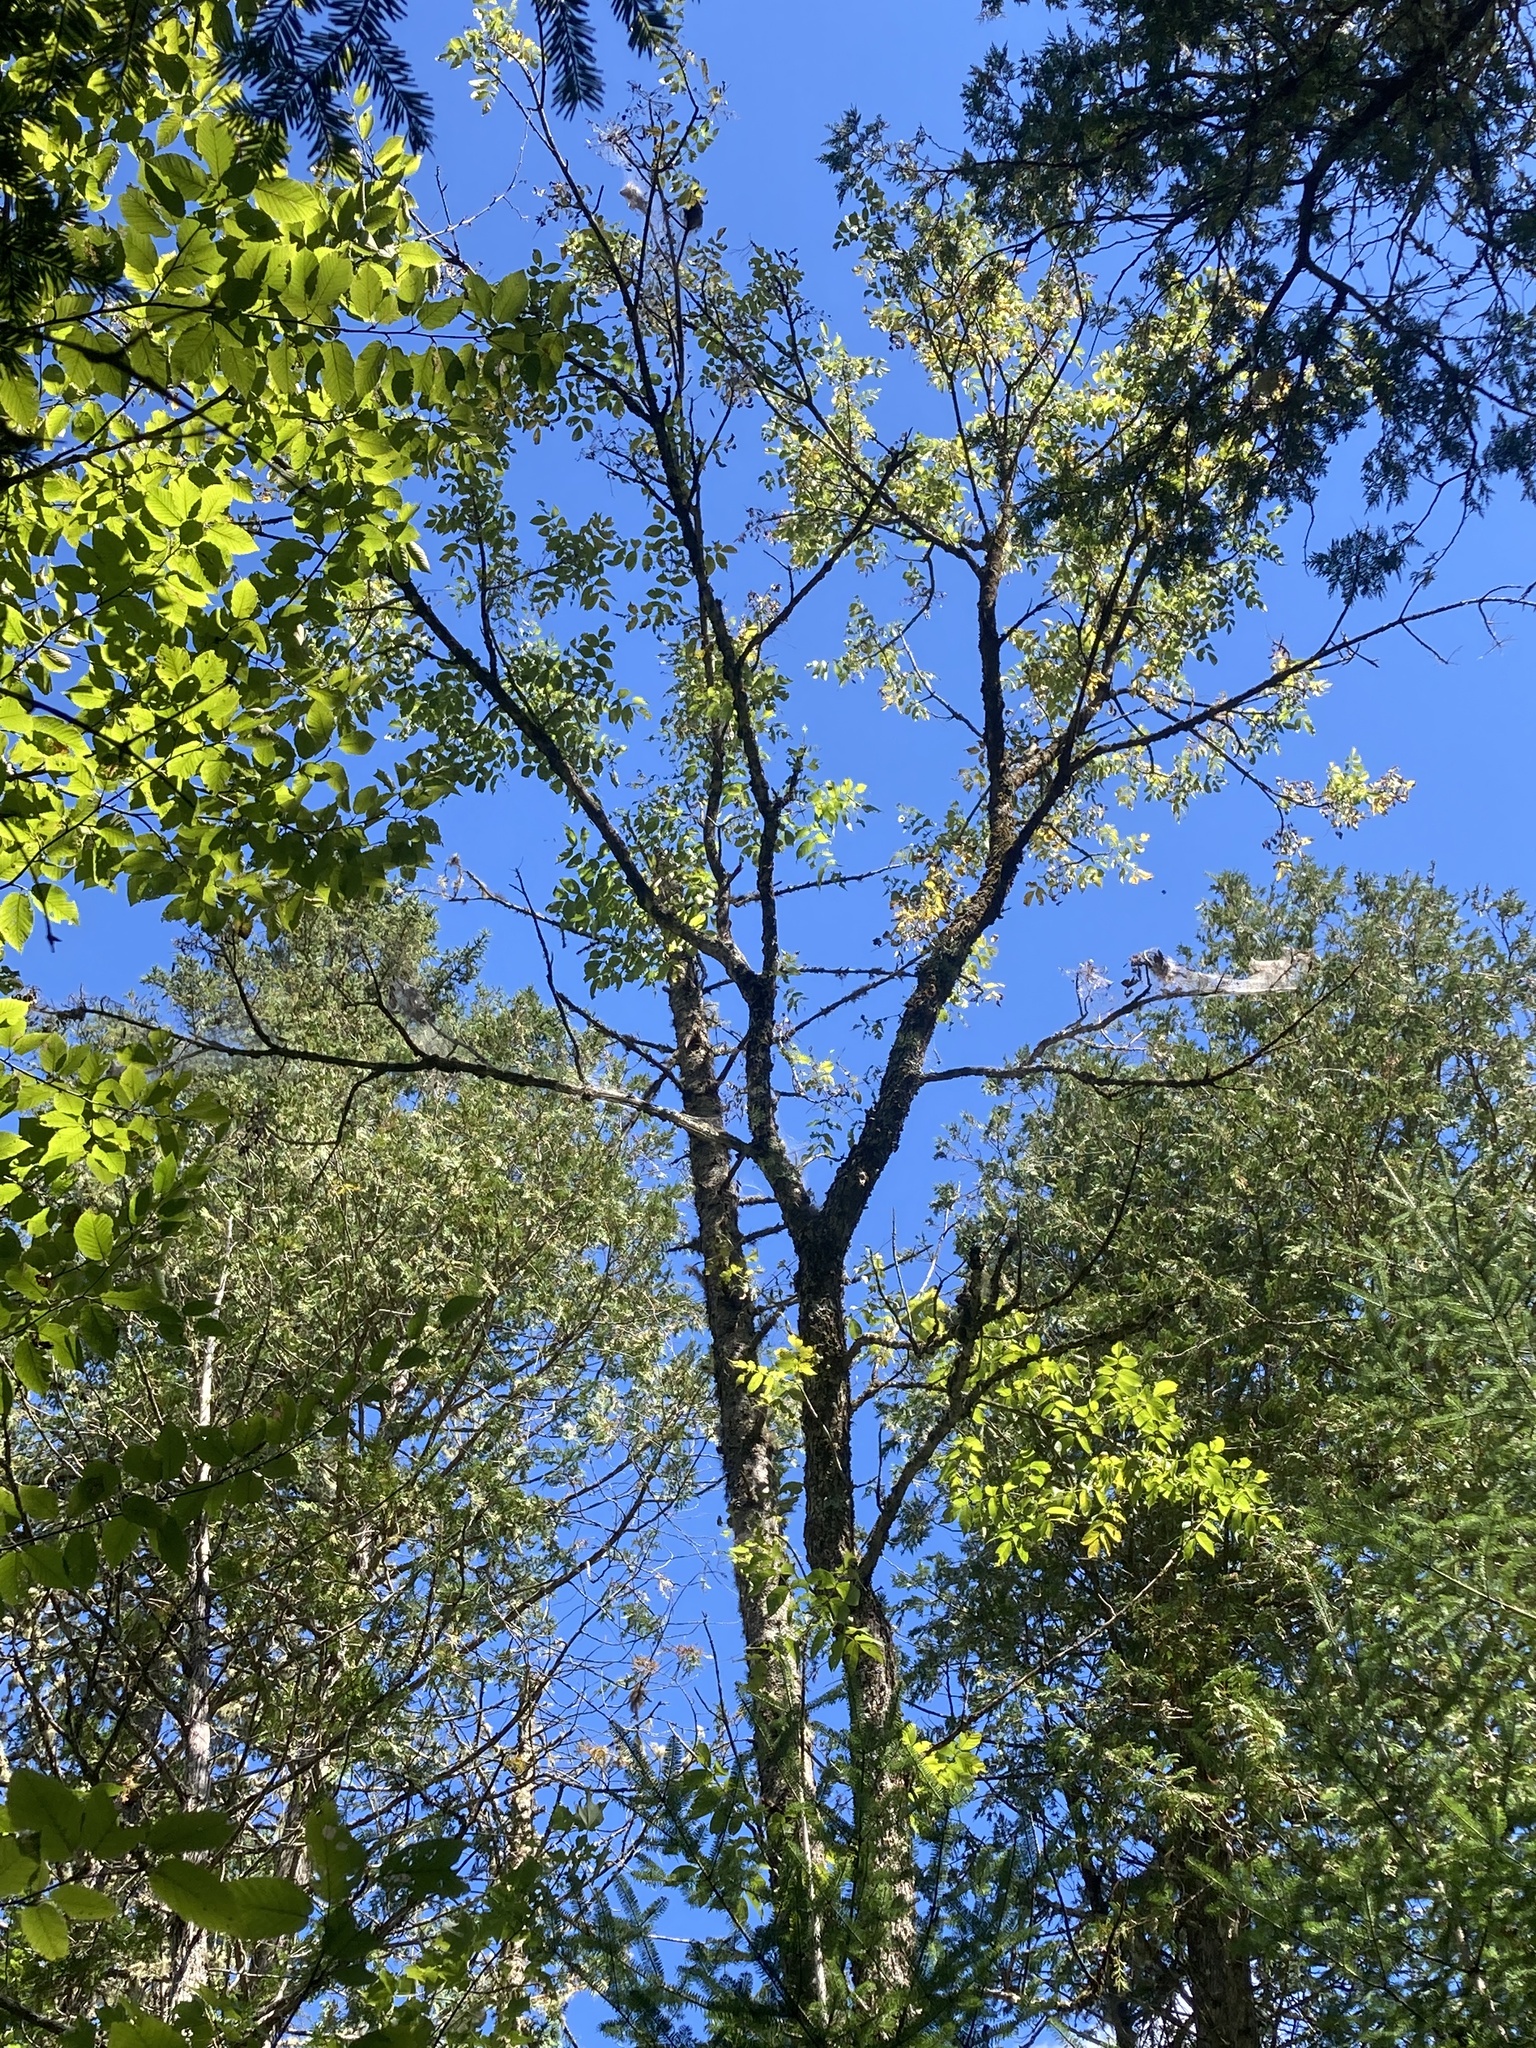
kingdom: Plantae
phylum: Tracheophyta
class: Magnoliopsida
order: Lamiales
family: Oleaceae
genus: Fraxinus
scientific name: Fraxinus nigra
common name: Black ash
